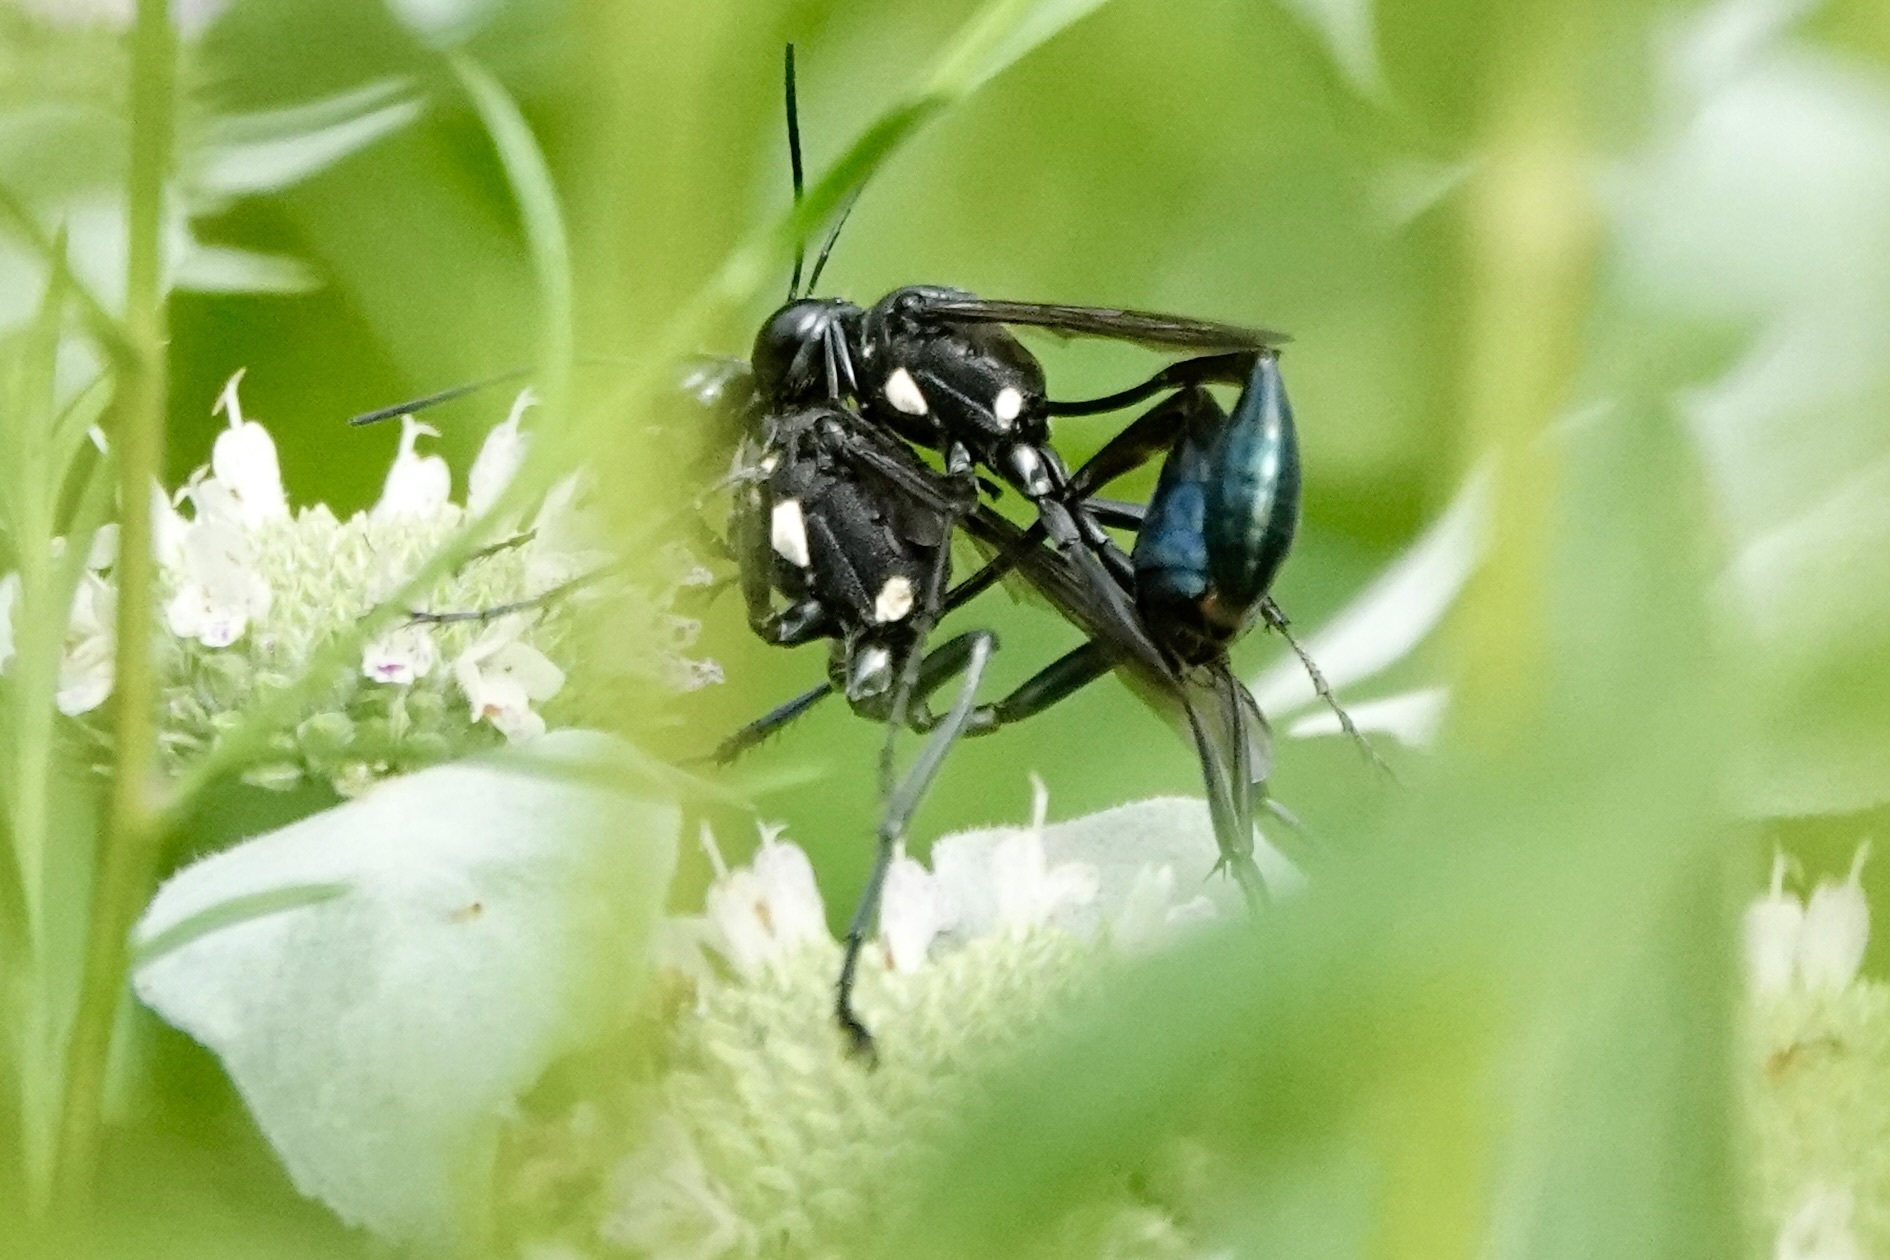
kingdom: Animalia
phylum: Arthropoda
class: Insecta
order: Hymenoptera
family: Sphecidae
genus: Eremnophila
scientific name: Eremnophila aureonotata
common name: Gold-marked thread-waisted wasp
